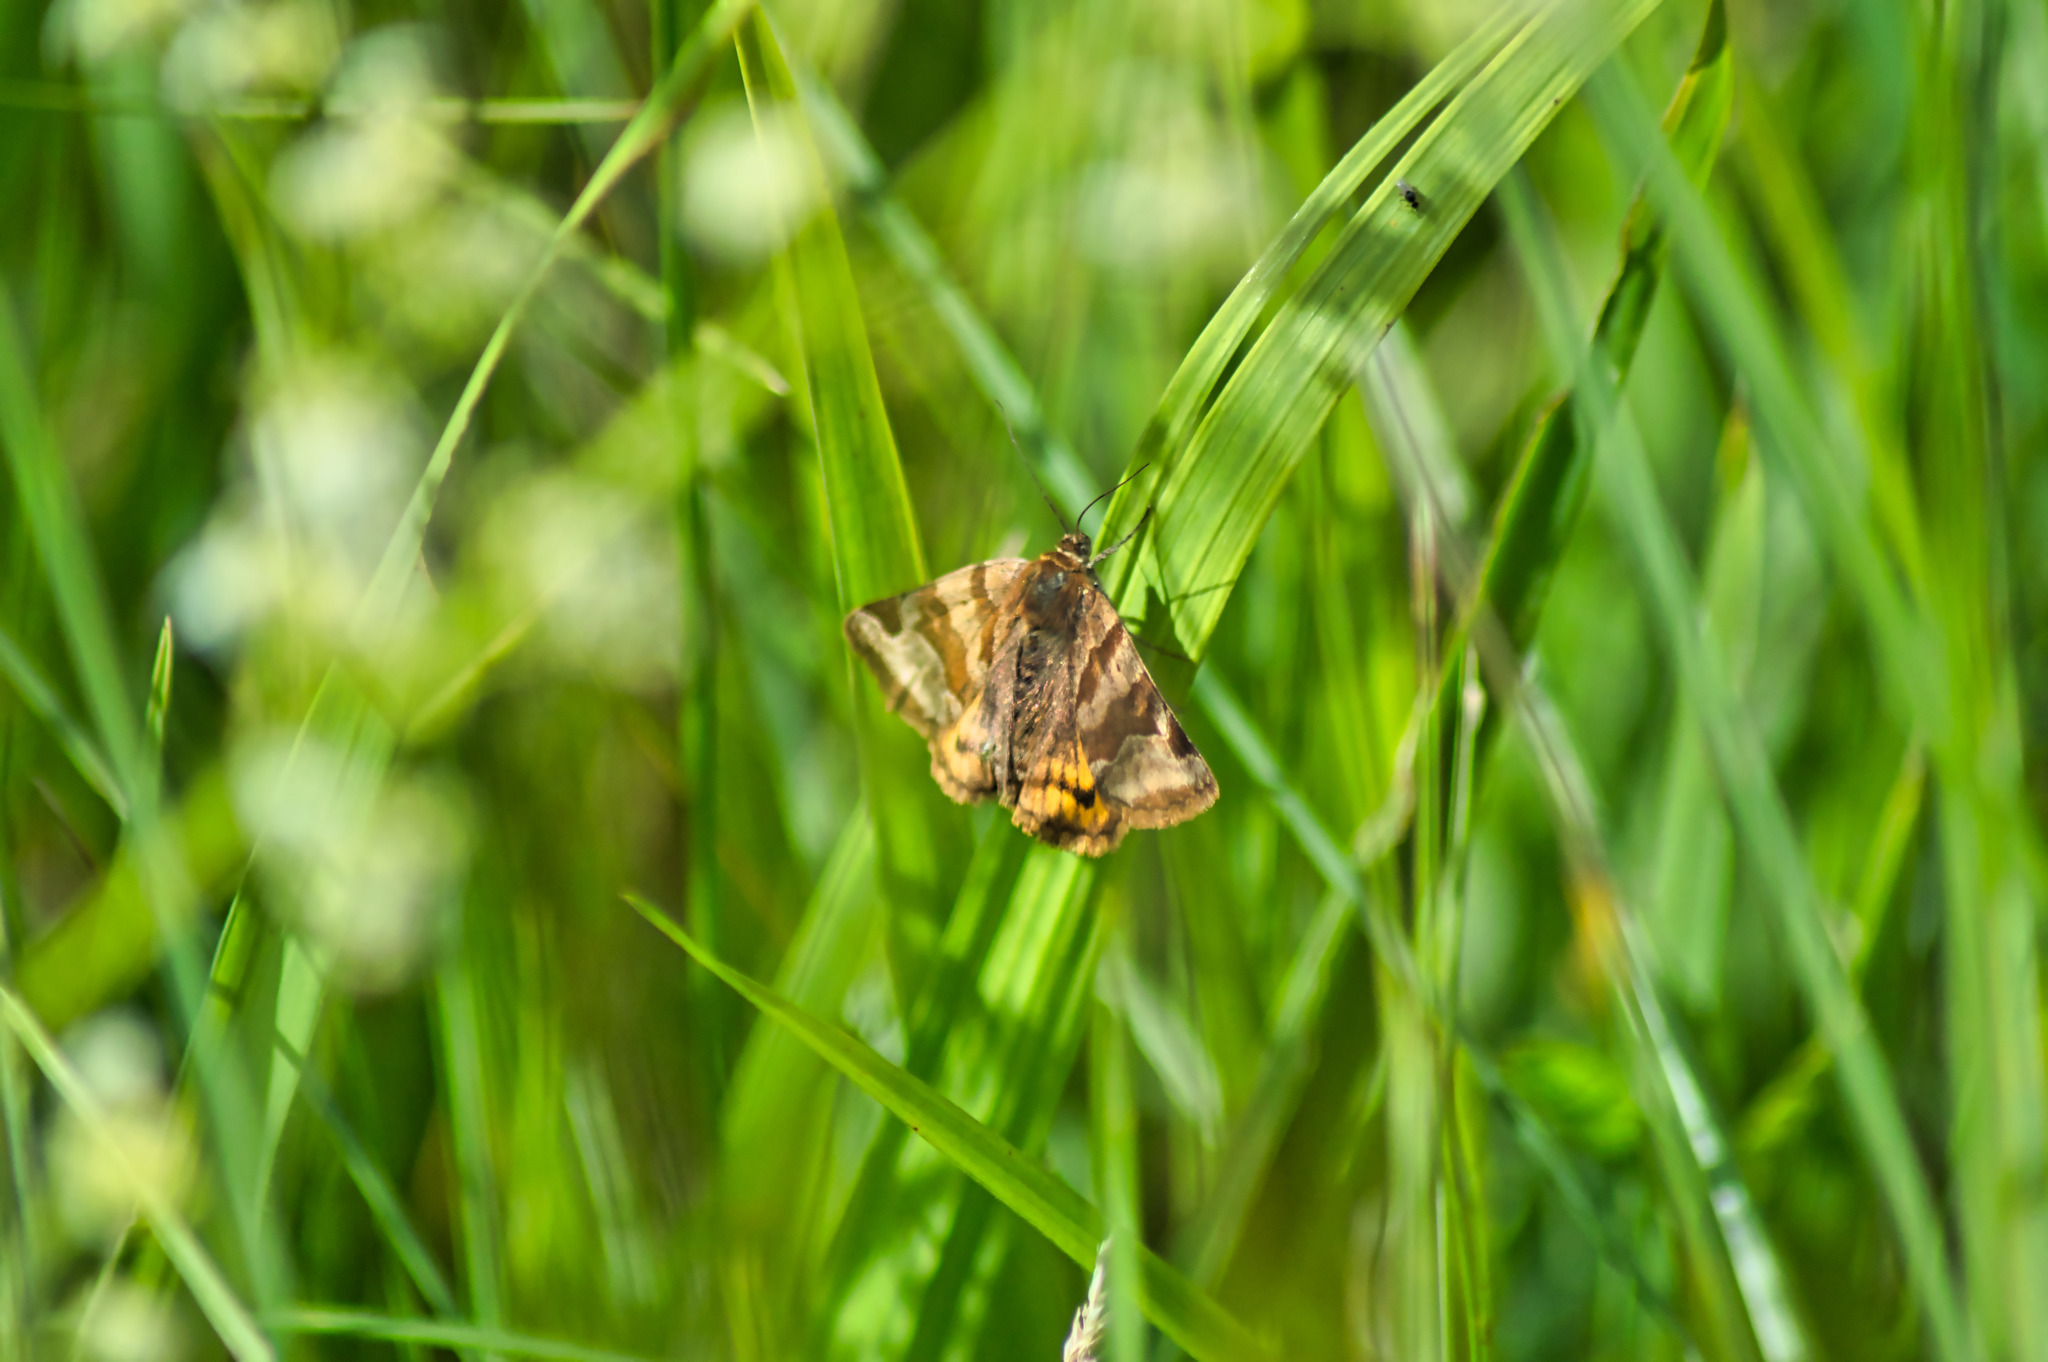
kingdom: Animalia
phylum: Arthropoda
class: Insecta
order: Lepidoptera
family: Erebidae
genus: Euclidia
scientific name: Euclidia glyphica
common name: Burnet companion
